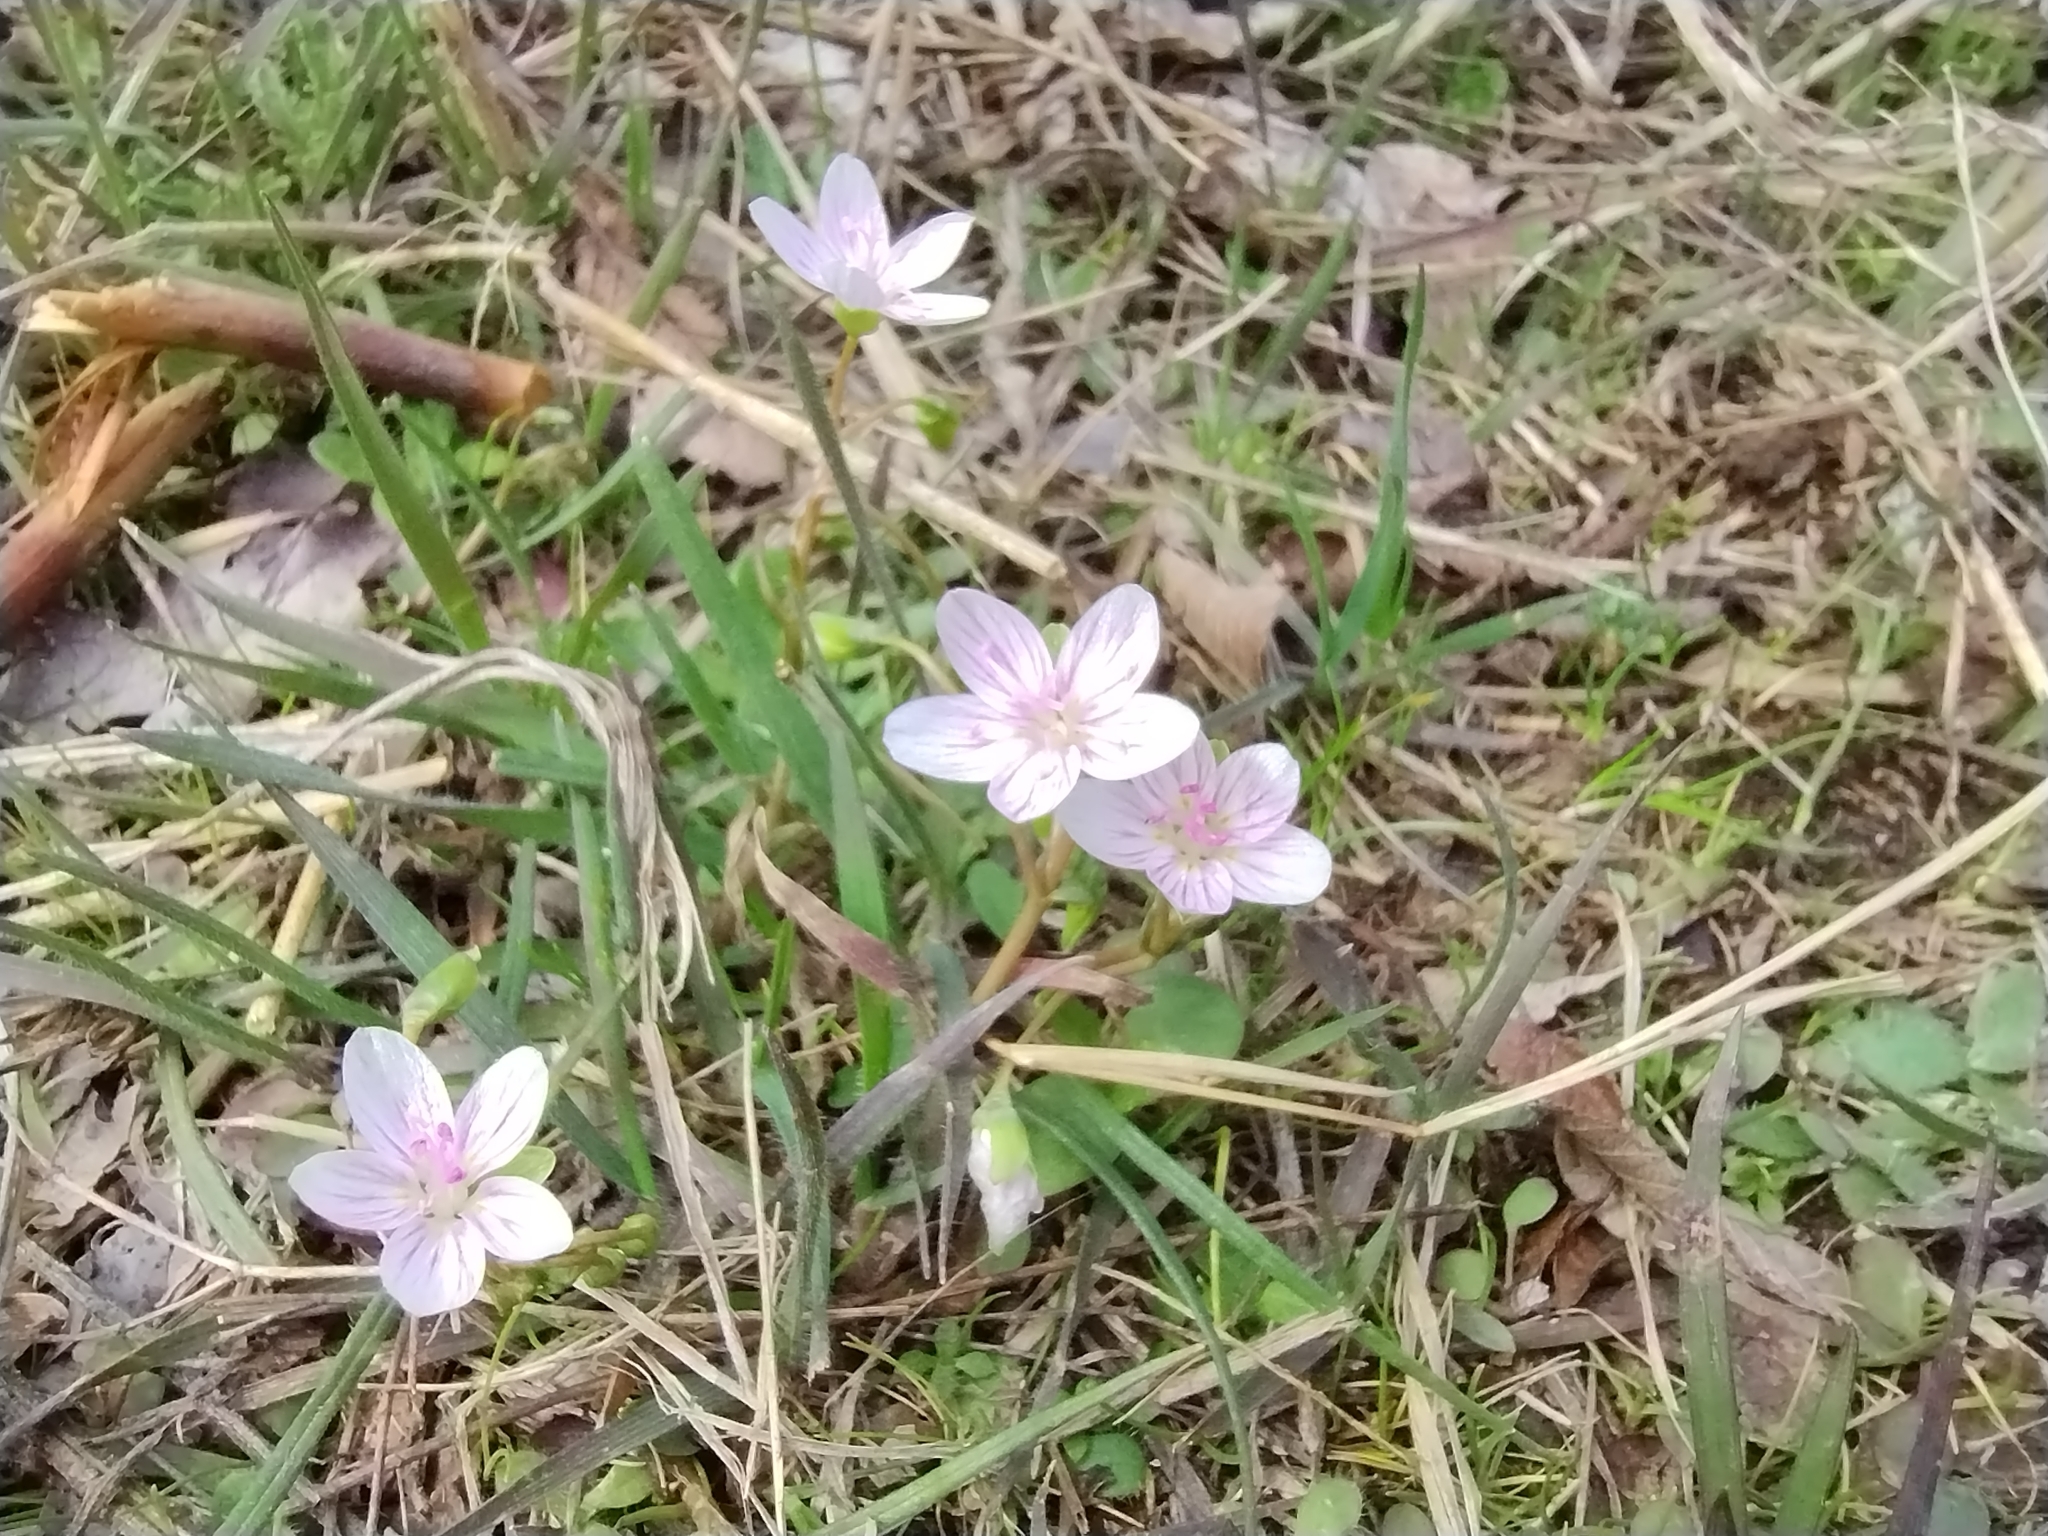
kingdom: Plantae
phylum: Tracheophyta
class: Magnoliopsida
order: Caryophyllales
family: Montiaceae
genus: Claytonia
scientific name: Claytonia virginica
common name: Virginia springbeauty
